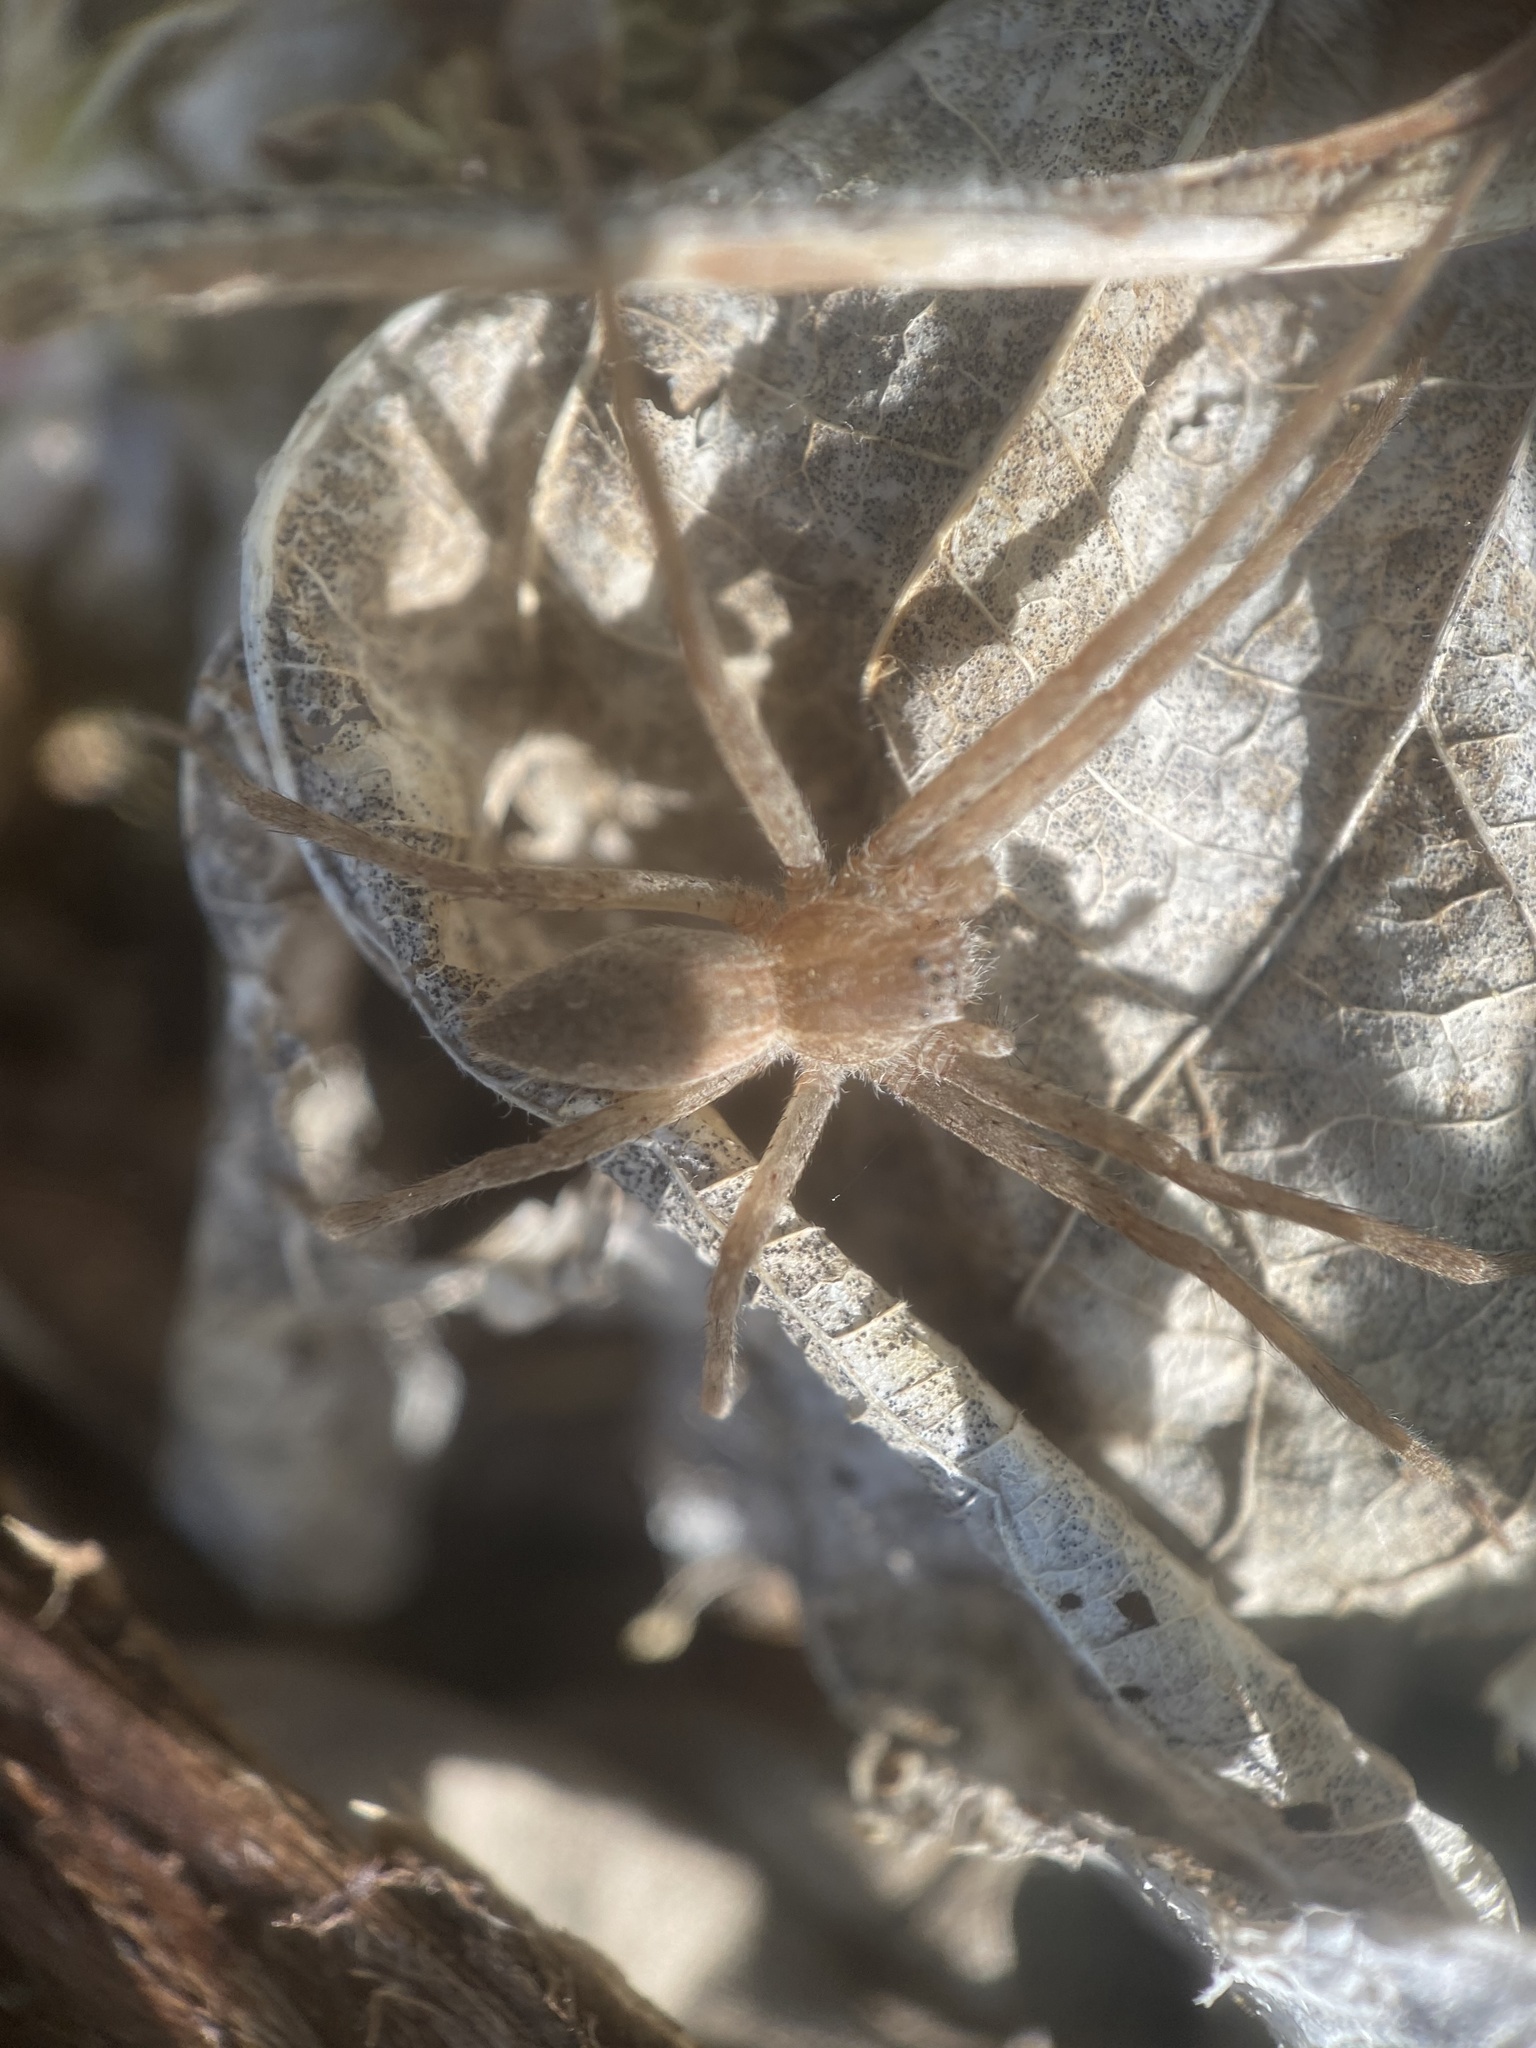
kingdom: Animalia
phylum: Arthropoda
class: Arachnida
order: Araneae
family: Pisauridae
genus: Pisaurina
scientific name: Pisaurina mira
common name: American nursery web spider
